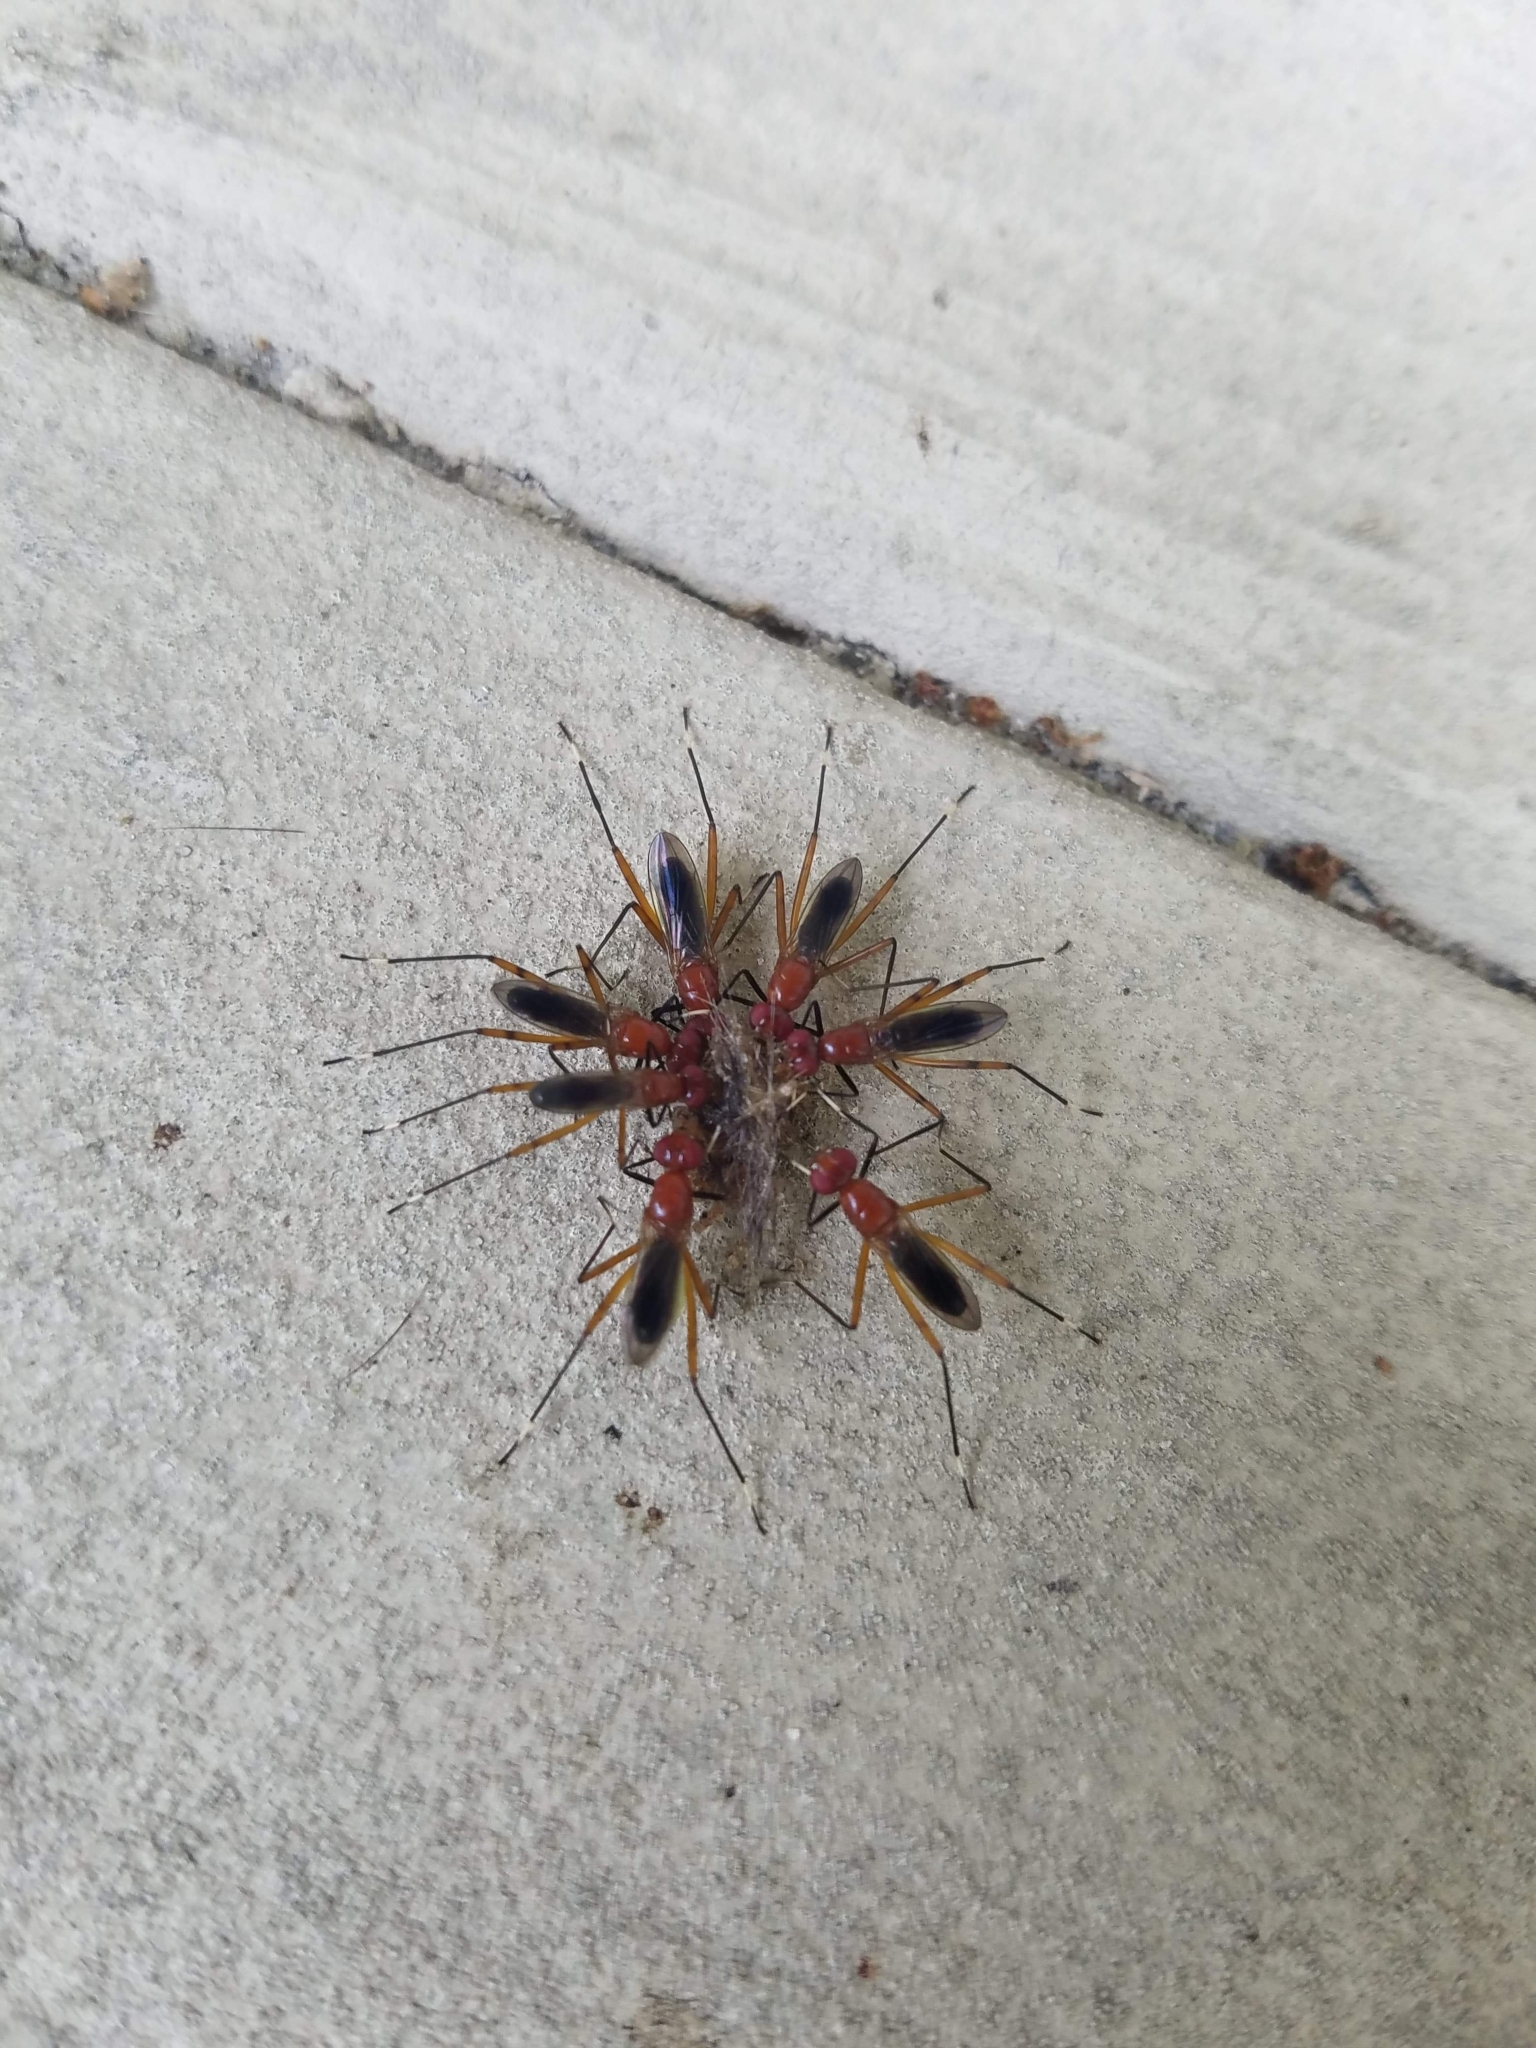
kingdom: Animalia
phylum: Arthropoda
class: Insecta
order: Diptera
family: Micropezidae
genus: Grallipeza
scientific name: Grallipeza nebulosa
